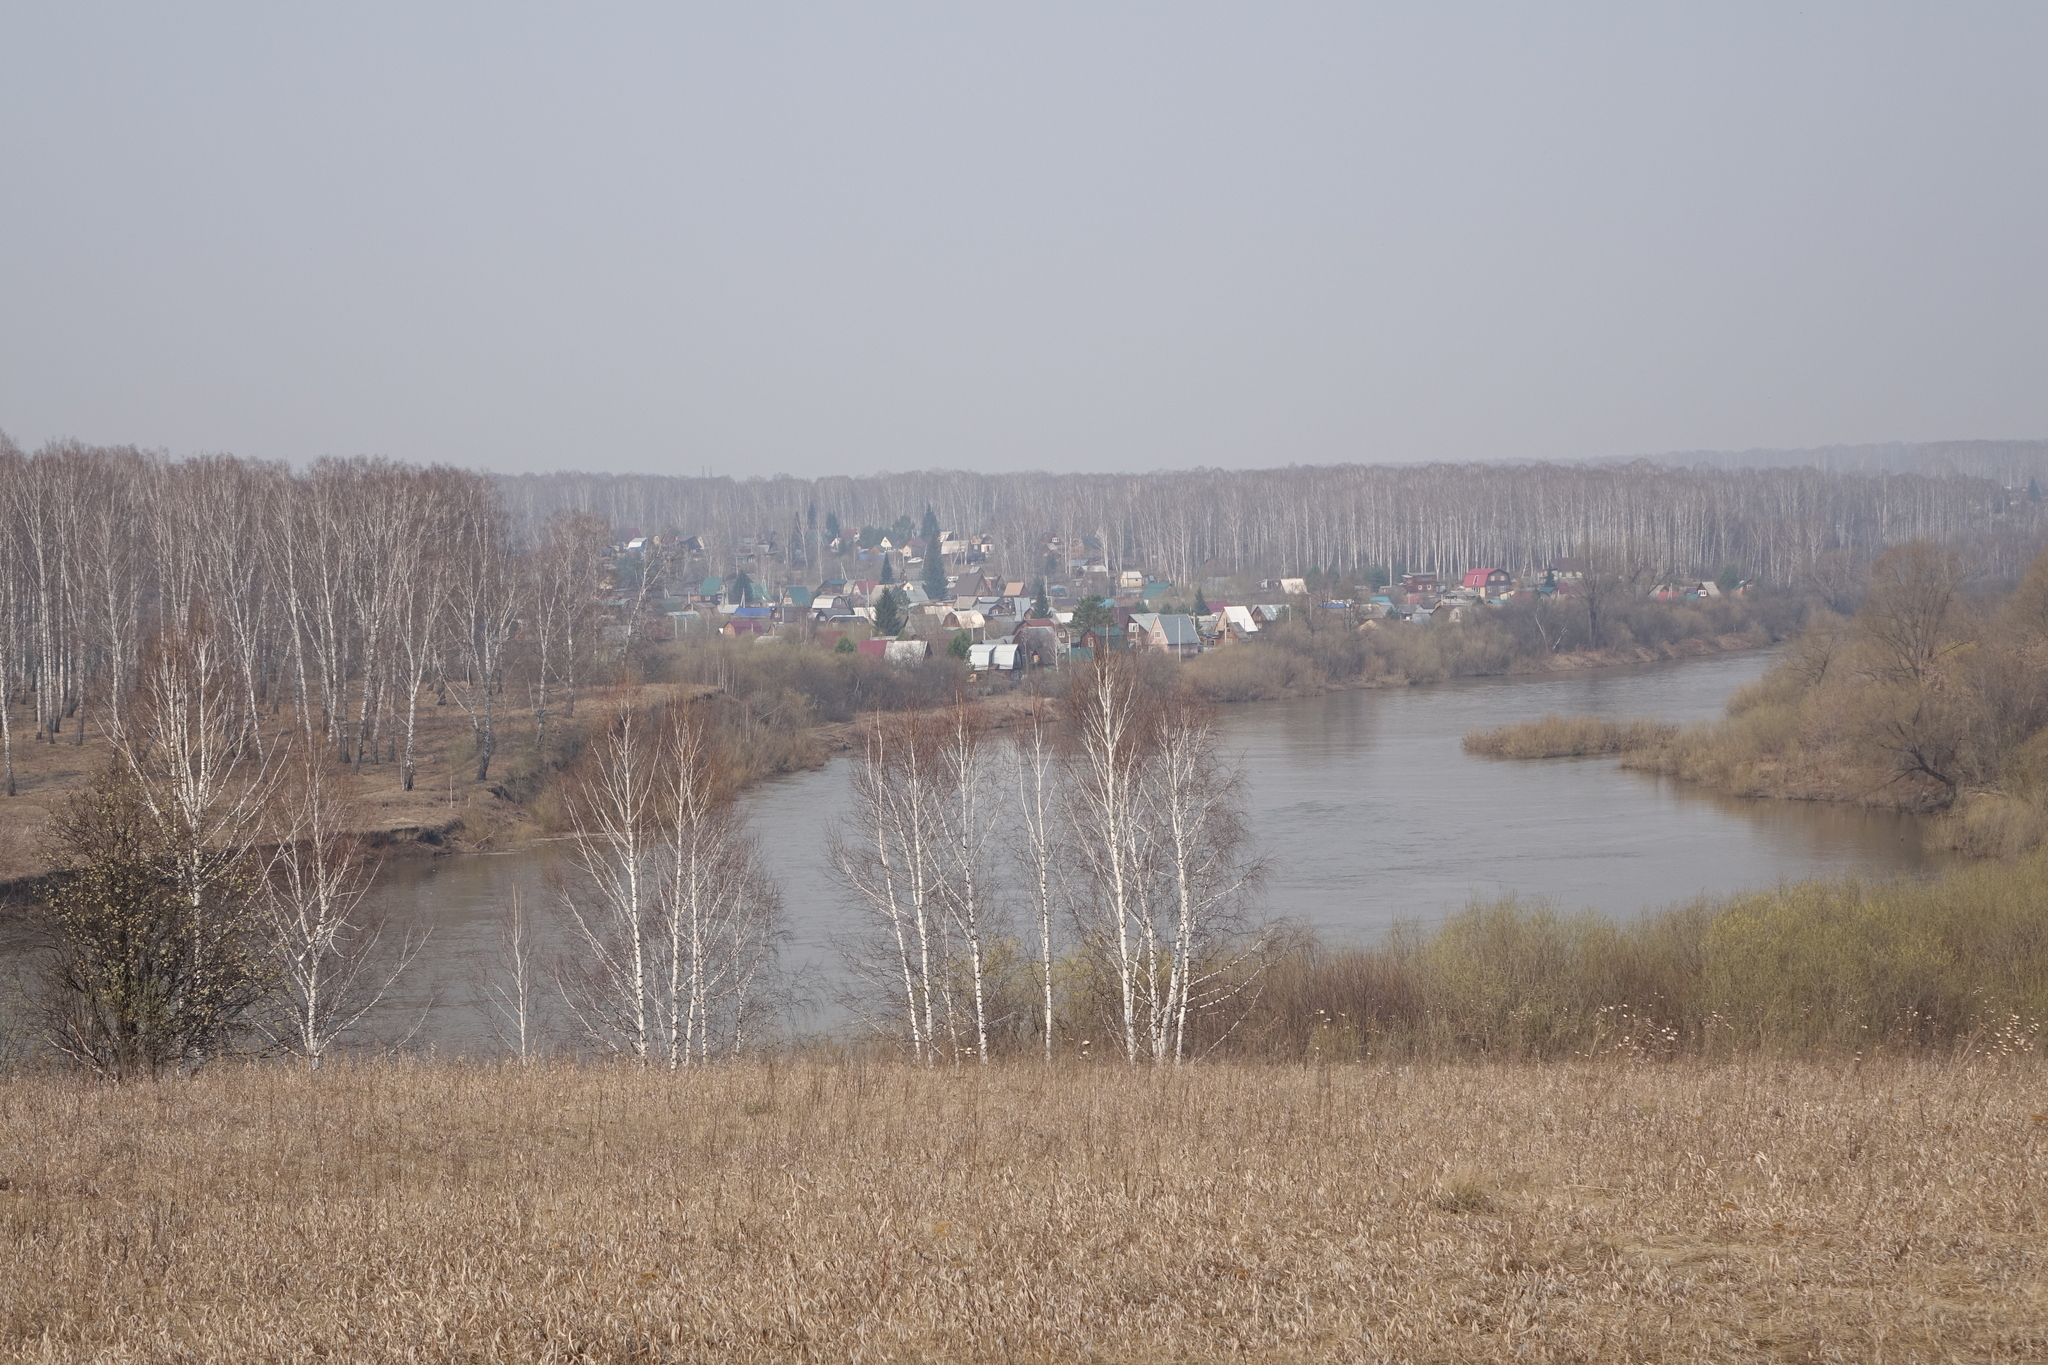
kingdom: Plantae
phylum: Tracheophyta
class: Magnoliopsida
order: Fagales
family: Betulaceae
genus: Betula
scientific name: Betula pendula
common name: Silver birch
